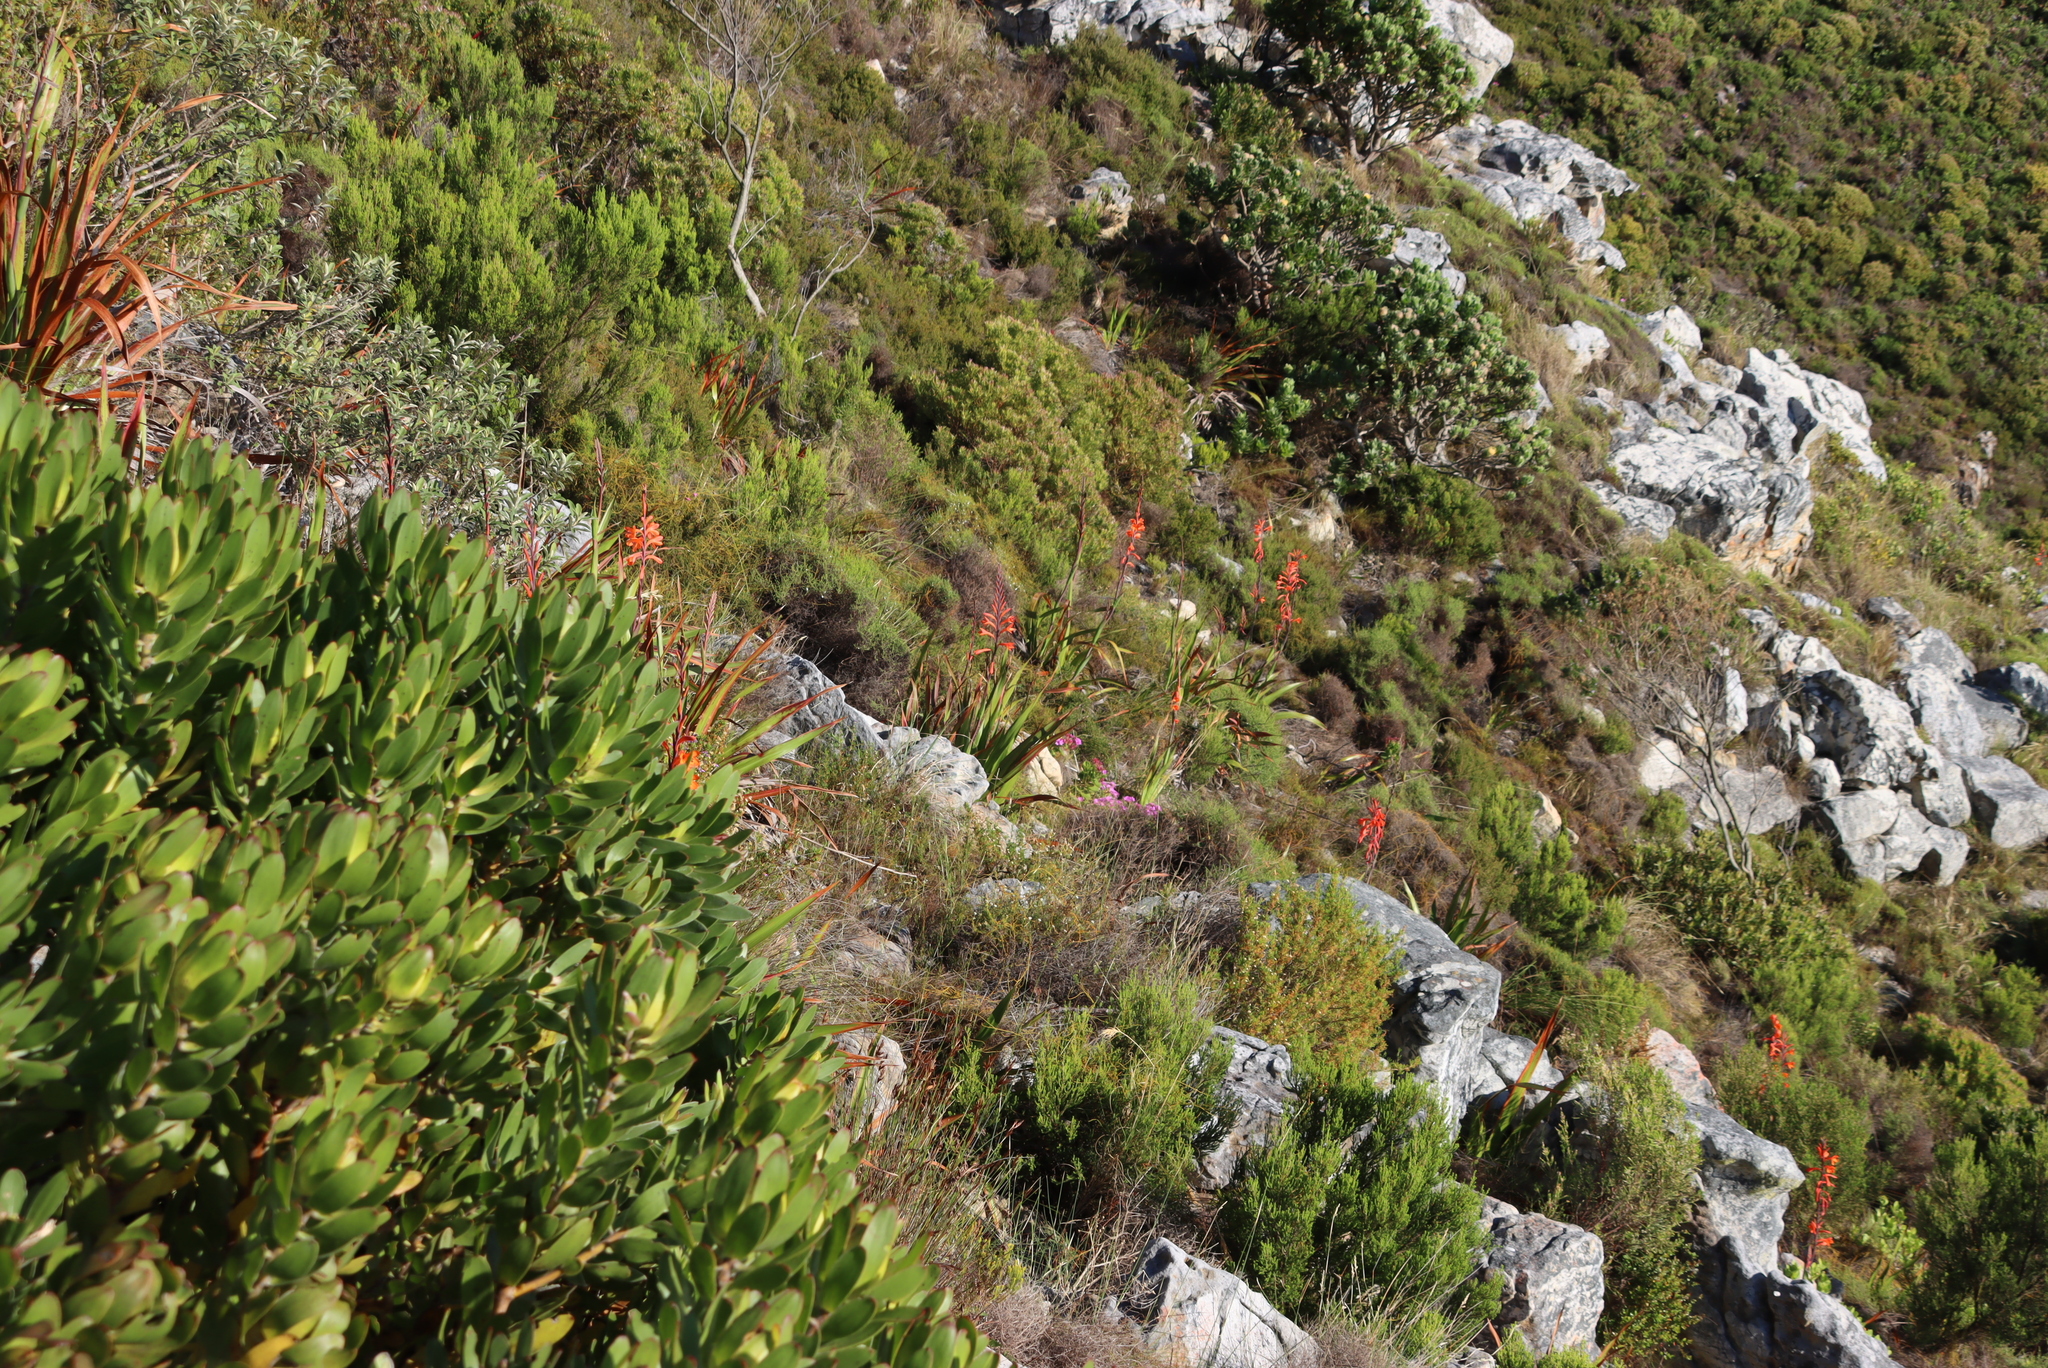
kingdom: Plantae
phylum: Tracheophyta
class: Liliopsida
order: Asparagales
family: Iridaceae
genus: Watsonia
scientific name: Watsonia tabularis
